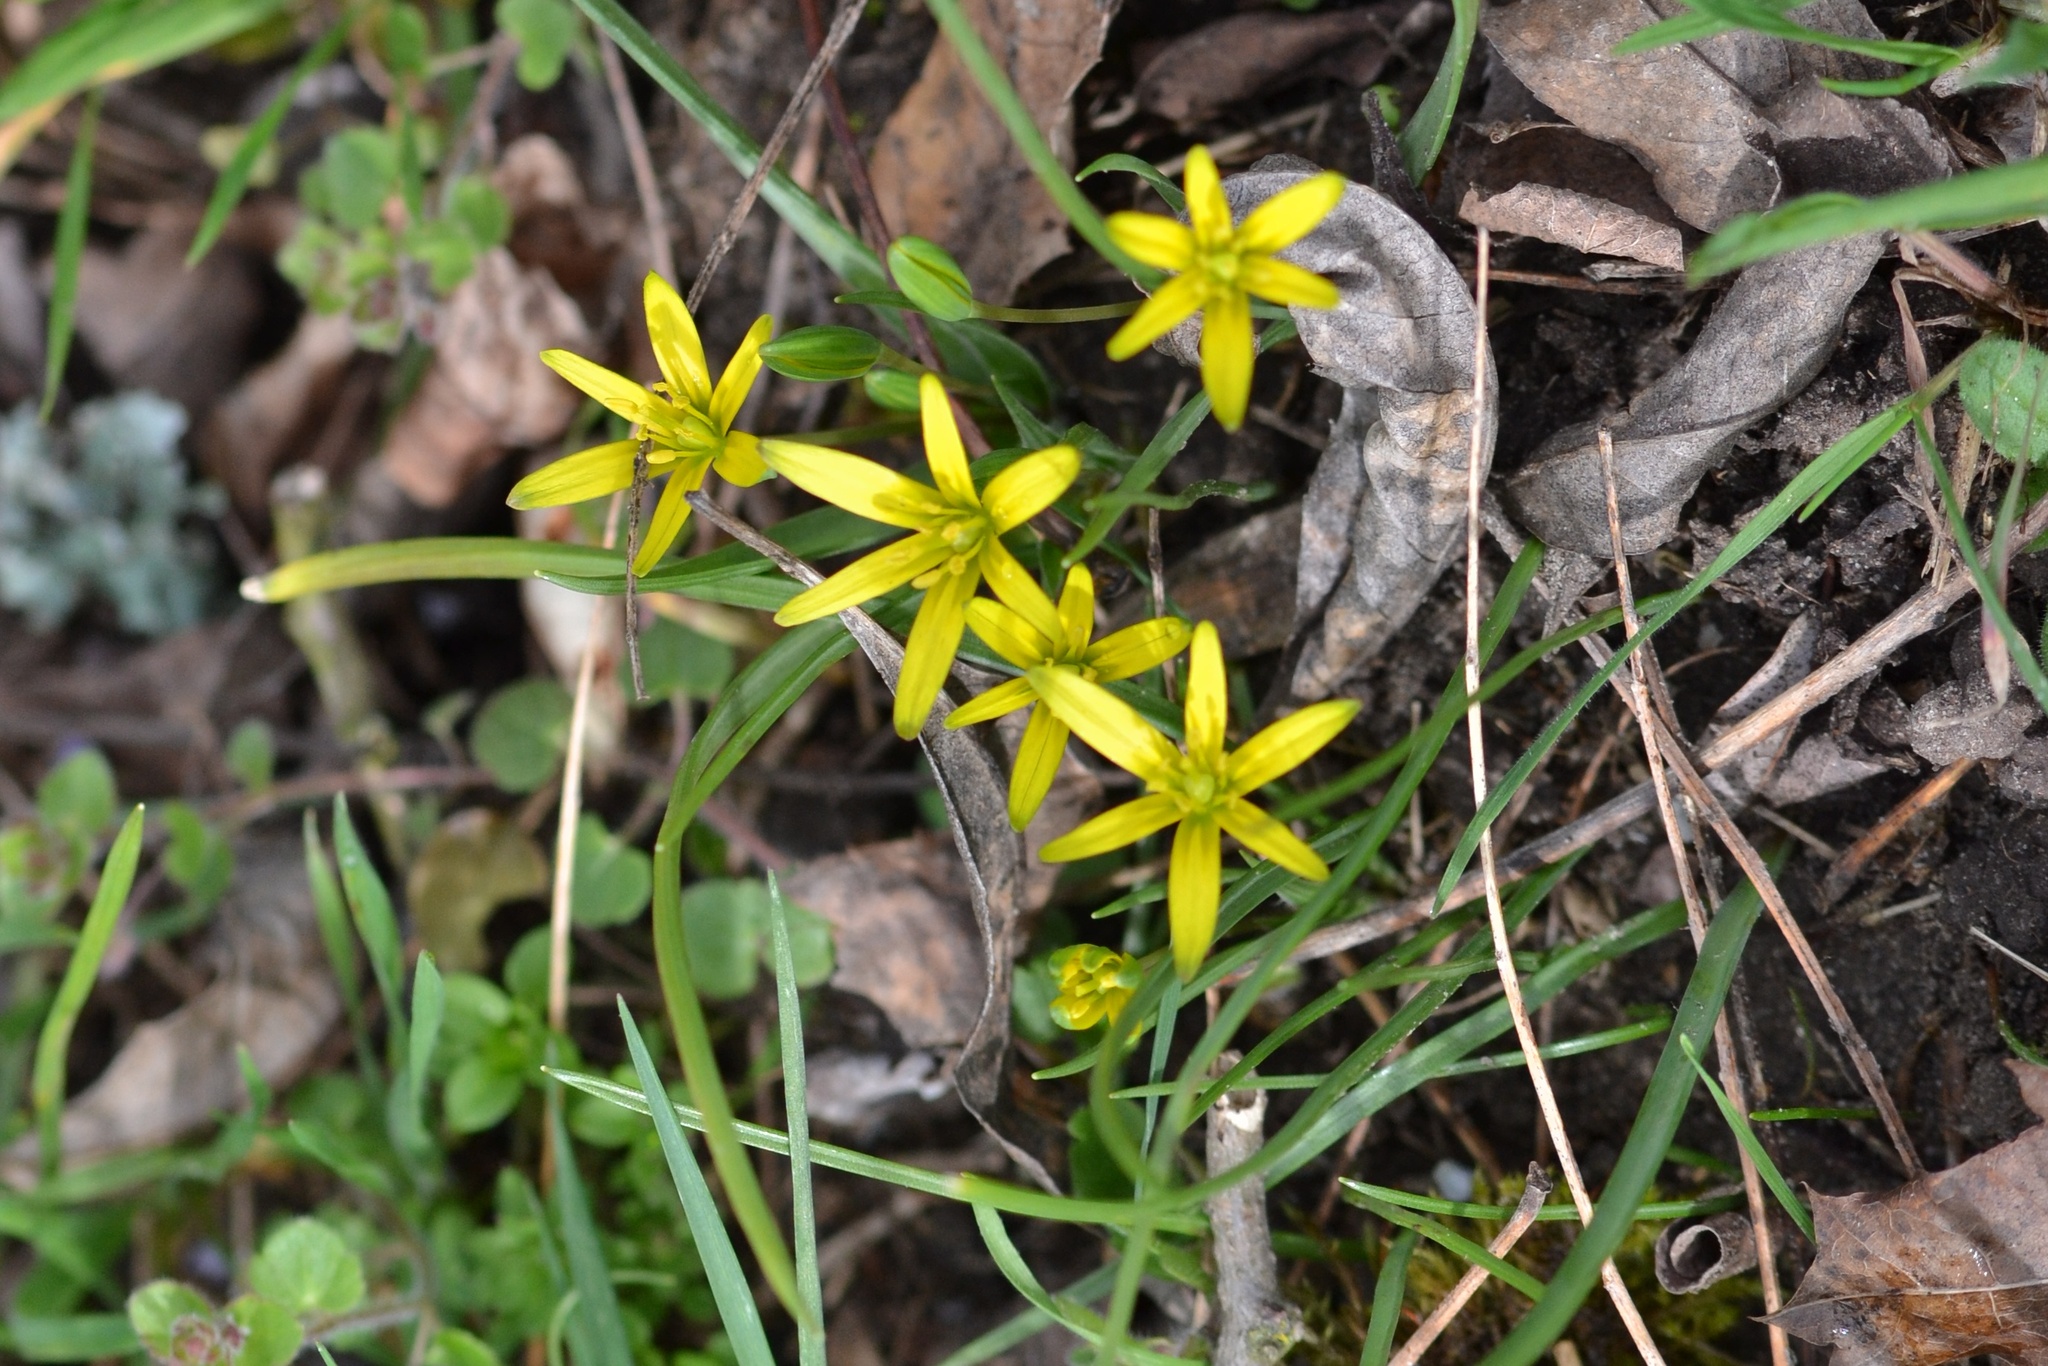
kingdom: Plantae
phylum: Tracheophyta
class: Liliopsida
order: Liliales
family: Liliaceae
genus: Gagea
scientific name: Gagea pratensis
